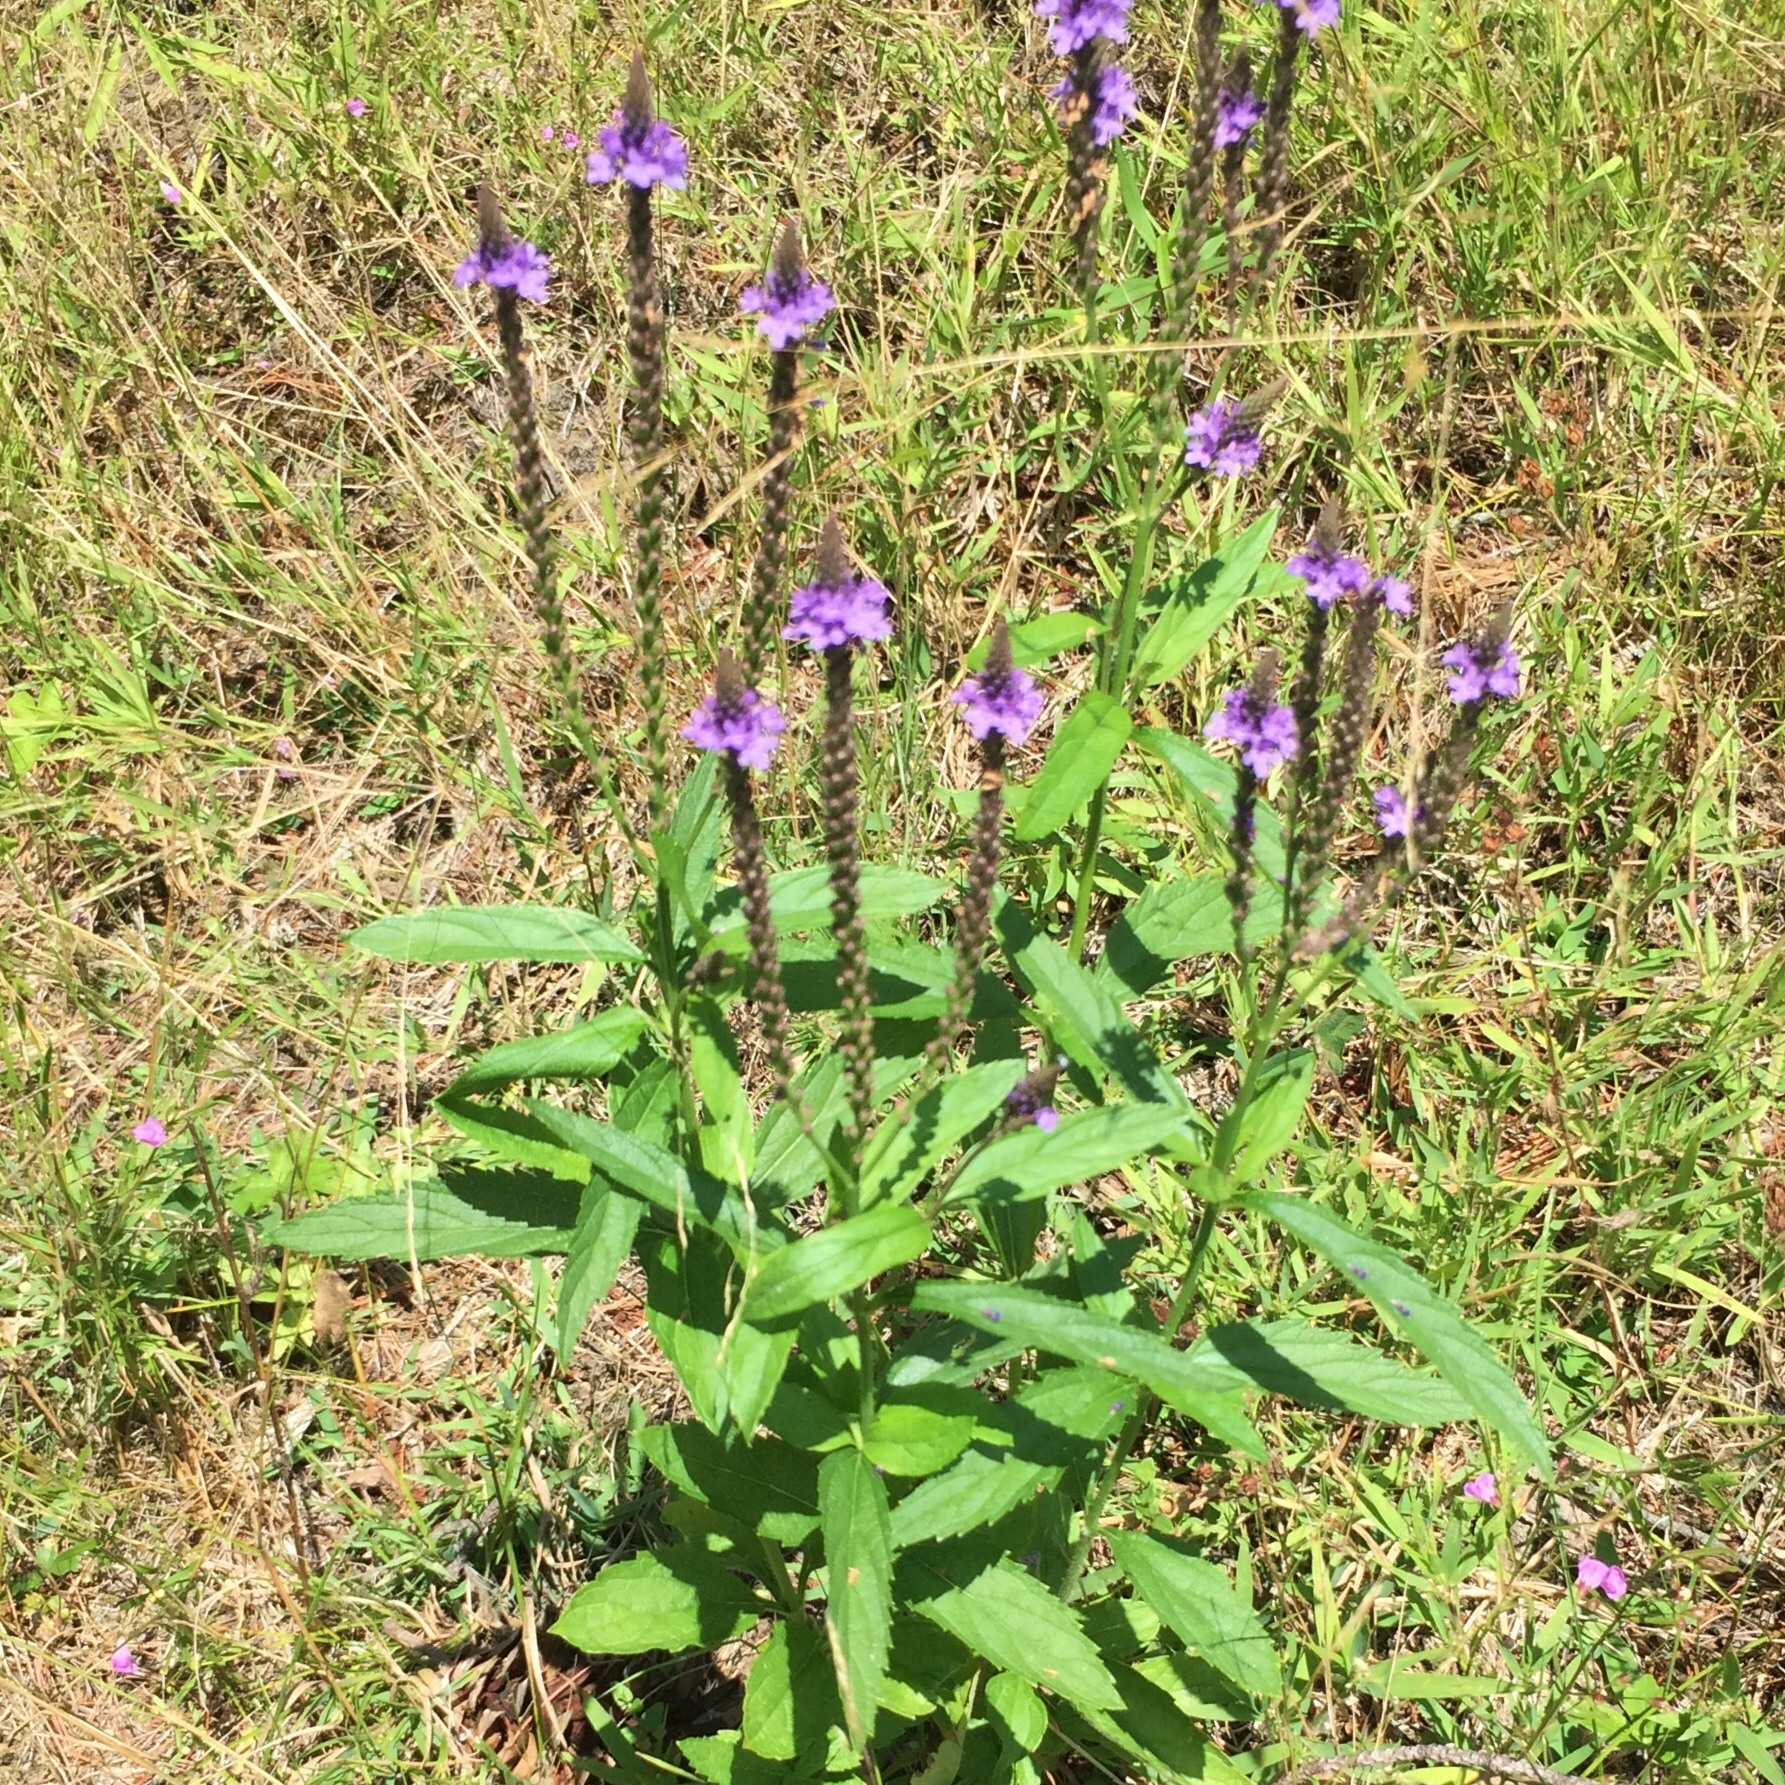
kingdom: Plantae
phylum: Tracheophyta
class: Magnoliopsida
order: Lamiales
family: Verbenaceae
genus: Verbena
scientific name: Verbena hastata
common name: American blue vervain
